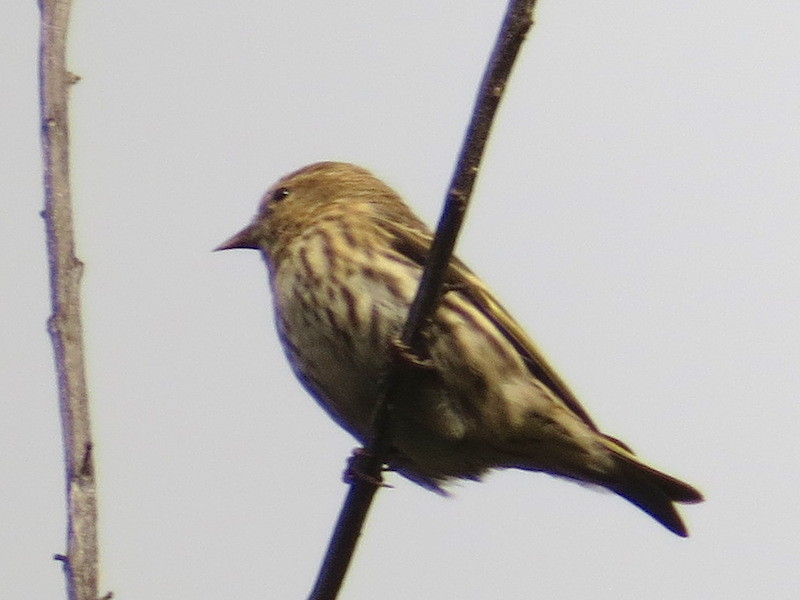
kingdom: Animalia
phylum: Chordata
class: Aves
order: Passeriformes
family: Fringillidae
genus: Spinus
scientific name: Spinus pinus
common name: Pine siskin
